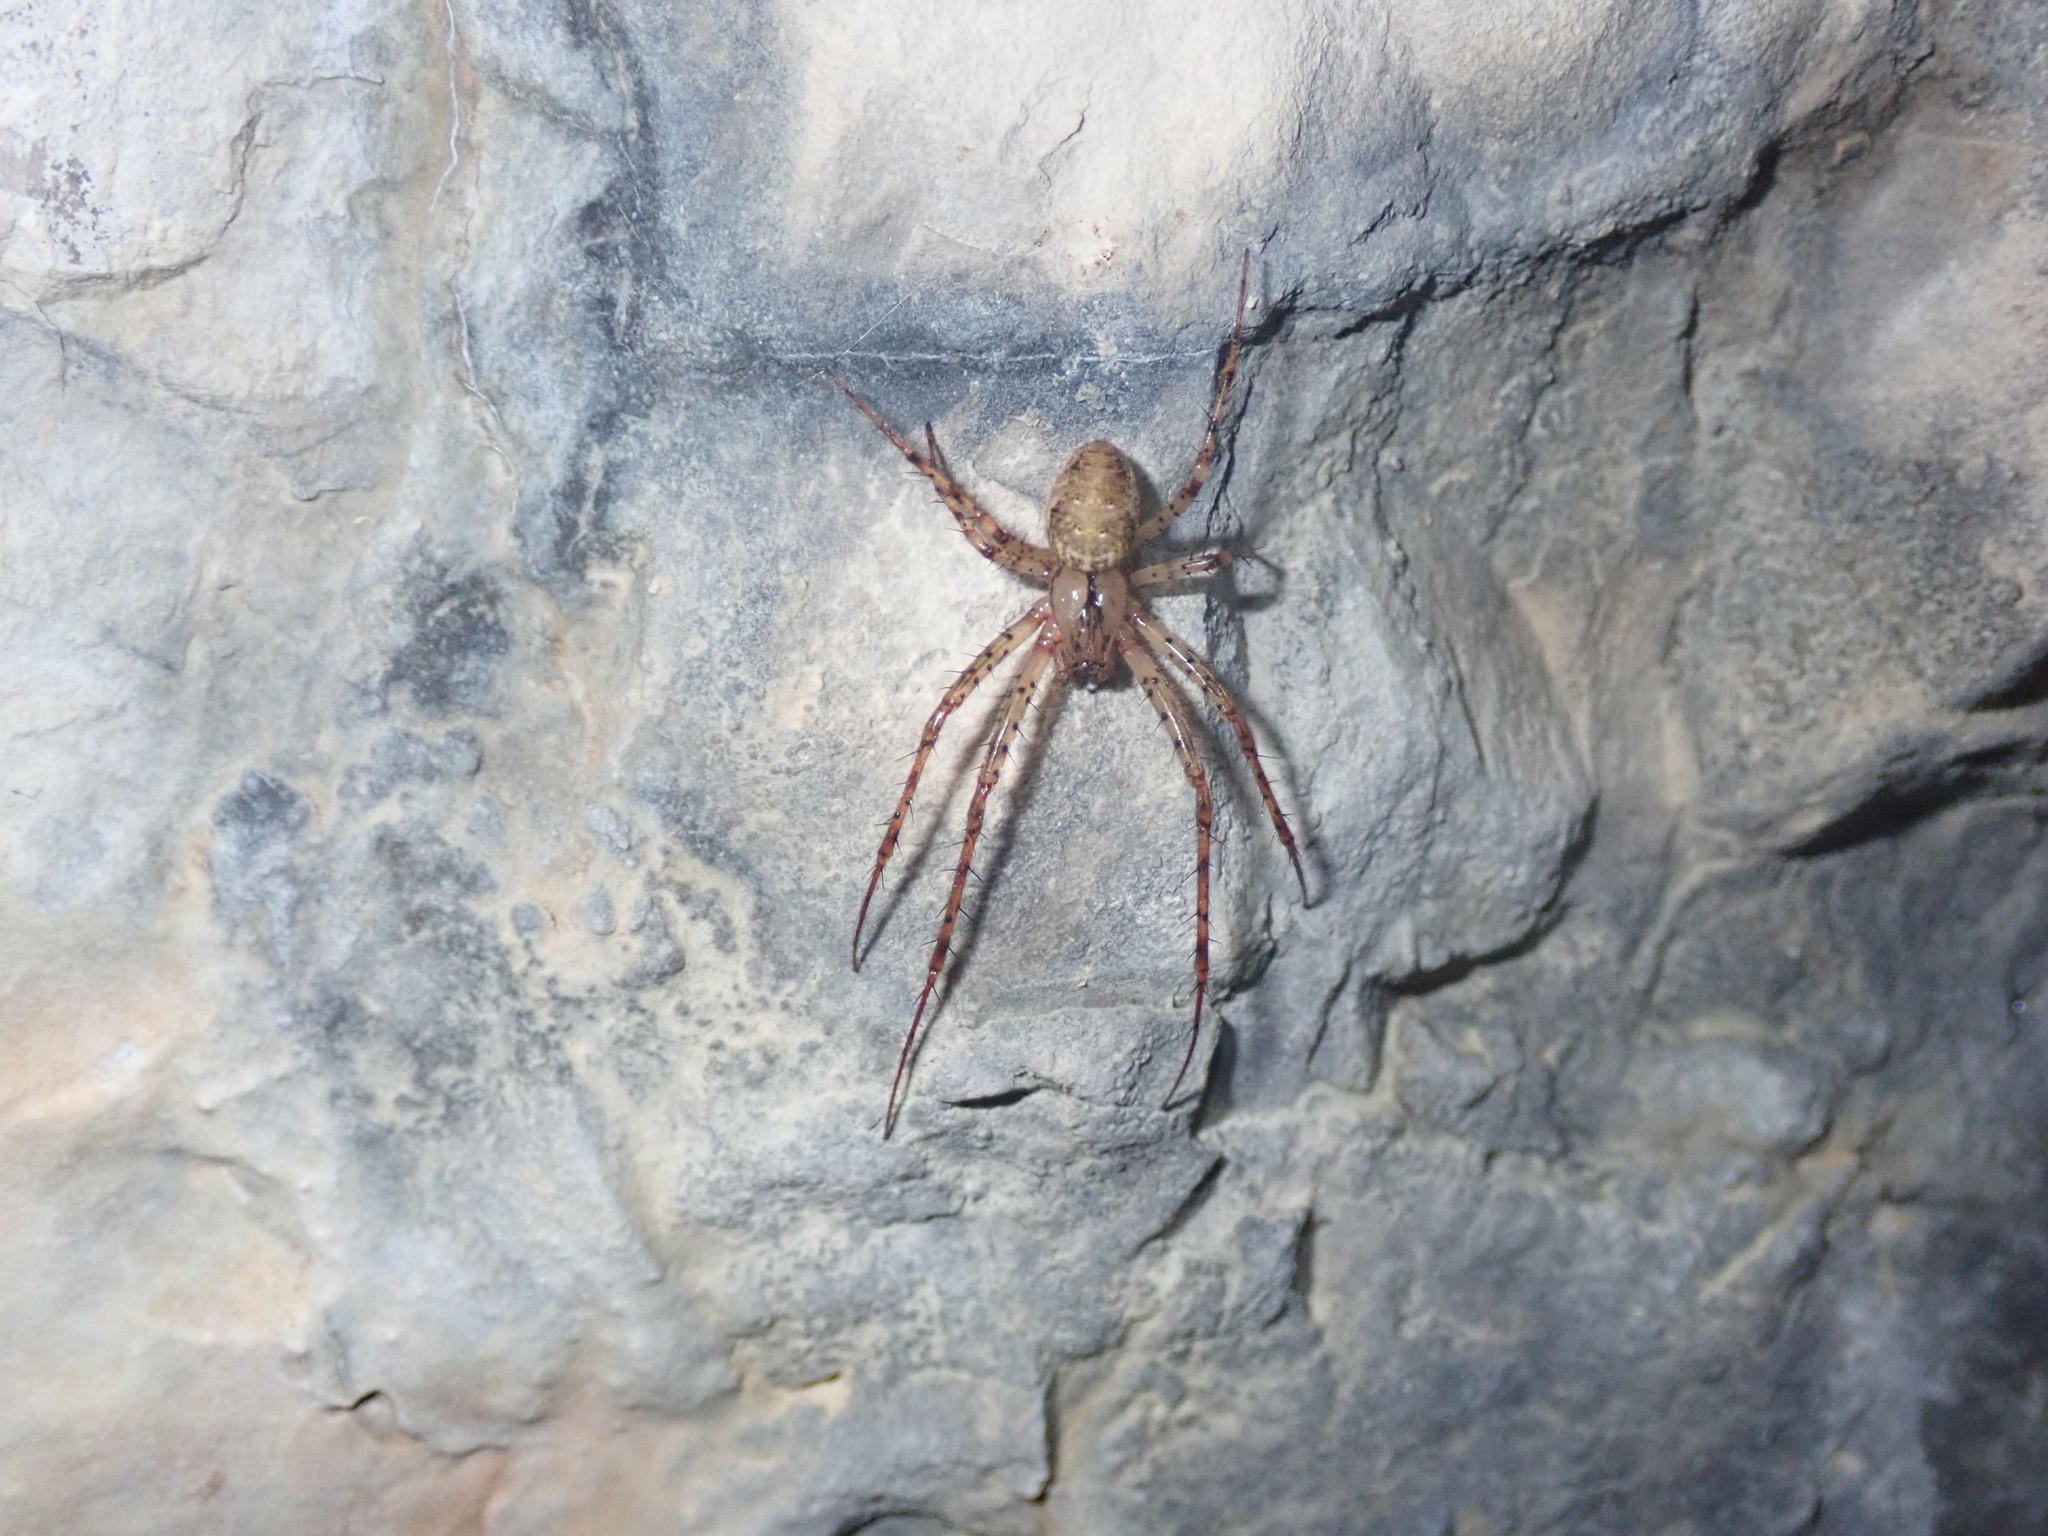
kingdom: Animalia
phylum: Arthropoda
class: Arachnida
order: Araneae
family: Tetragnathidae
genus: Metellina
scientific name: Metellina merianae
